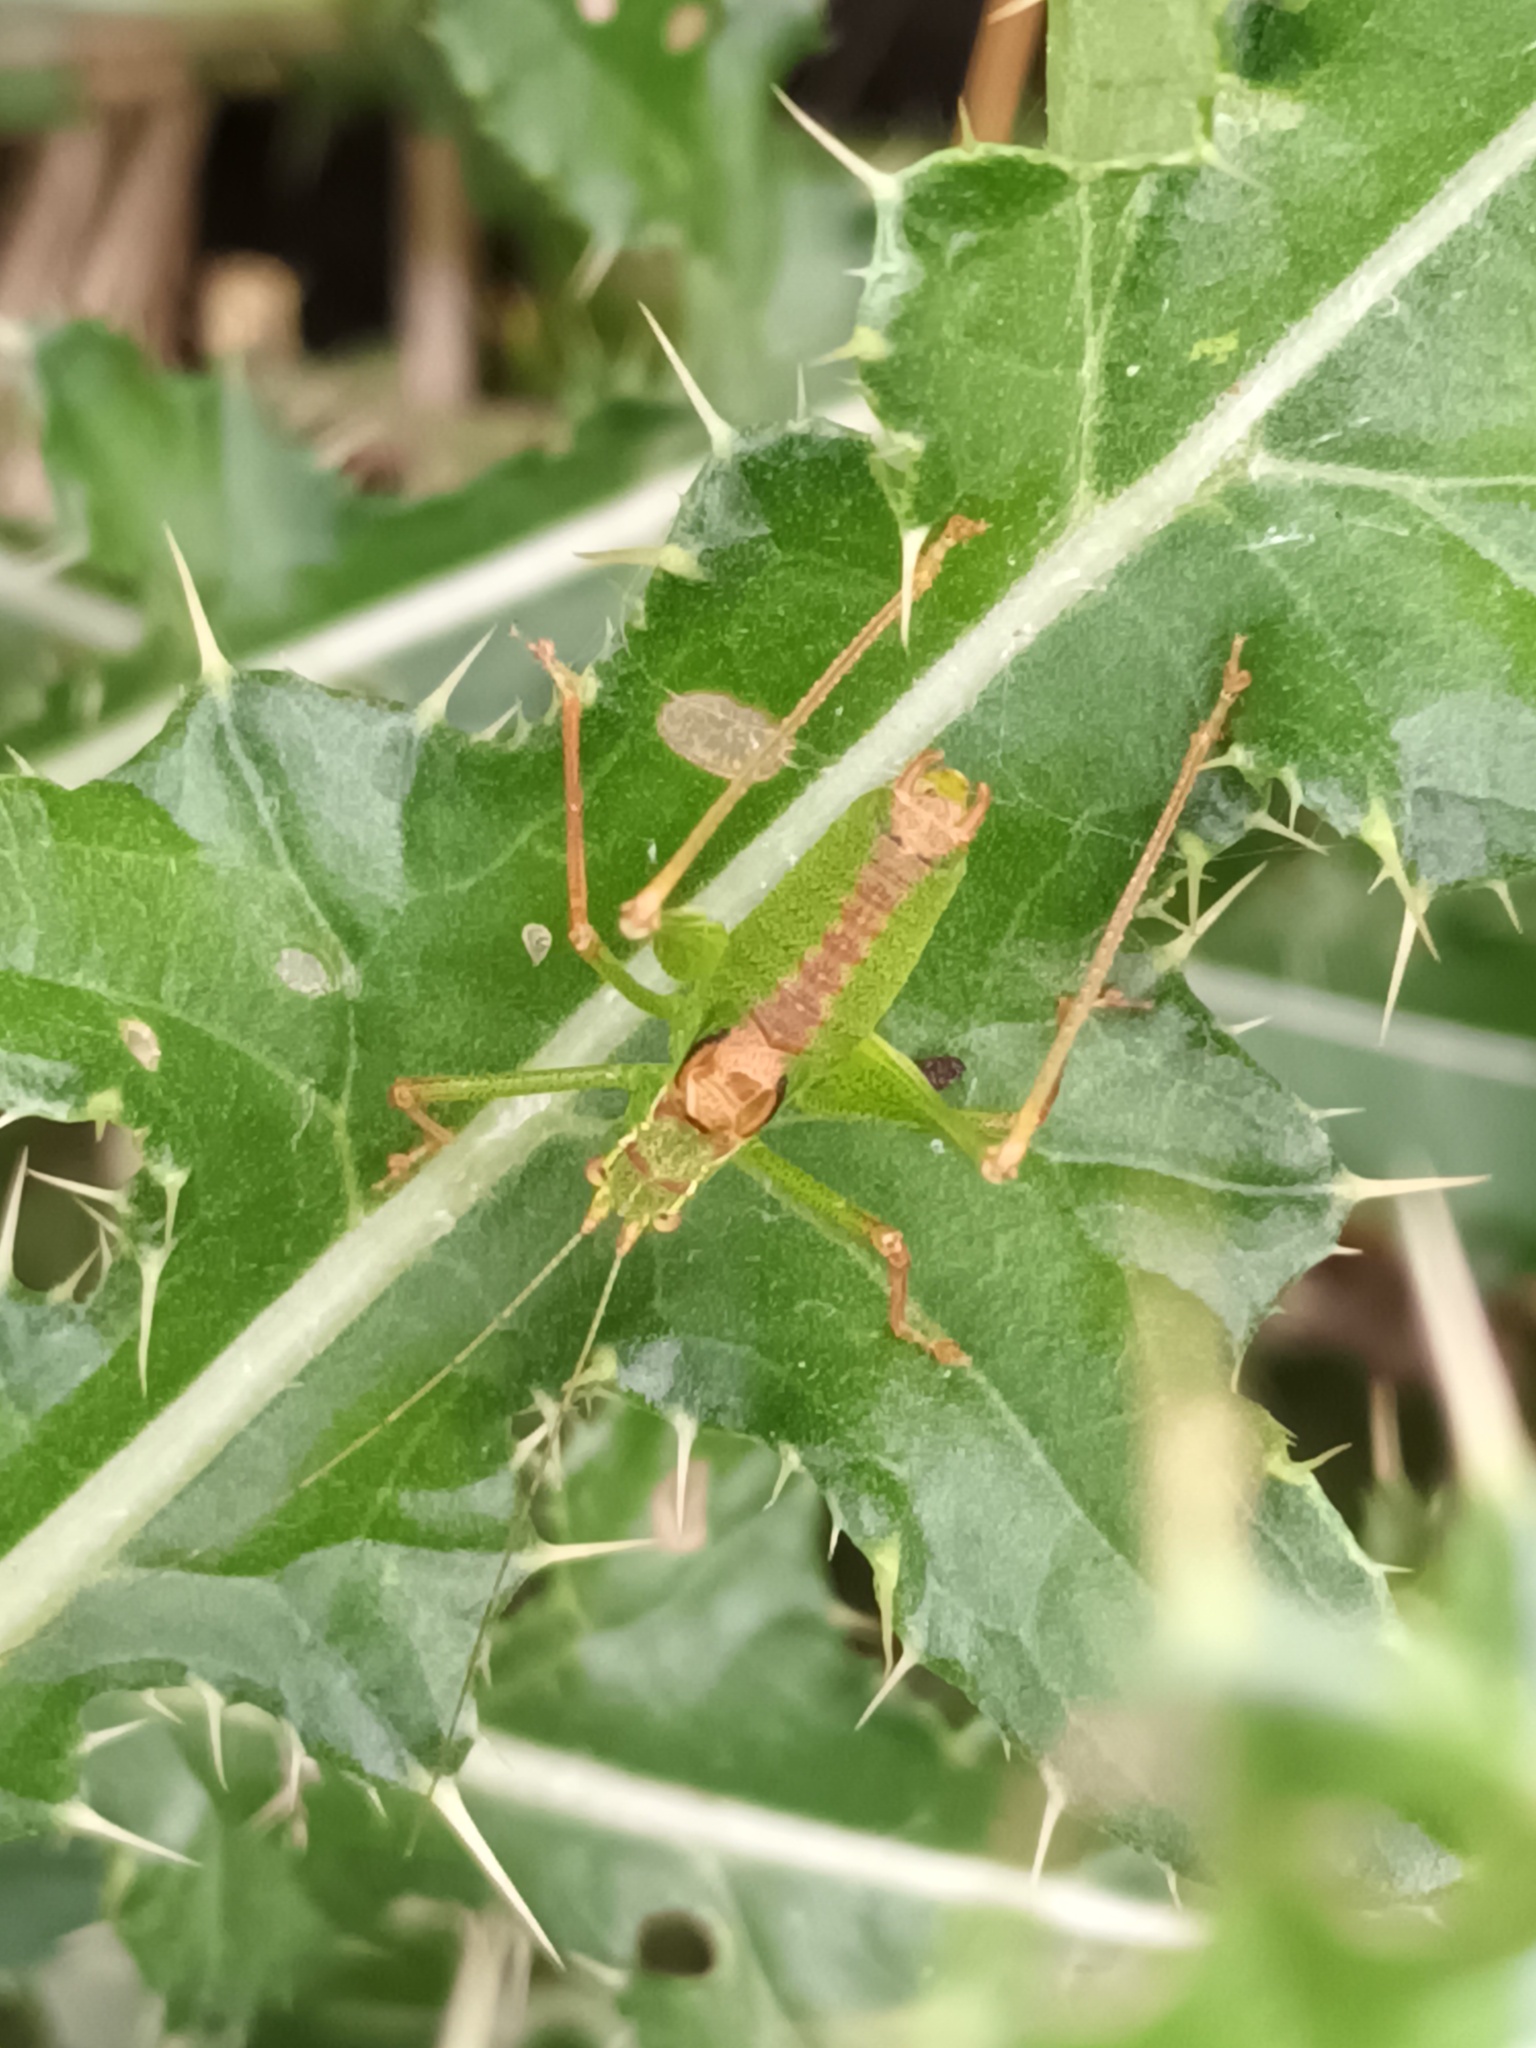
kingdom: Animalia
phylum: Arthropoda
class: Insecta
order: Orthoptera
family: Tettigoniidae
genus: Leptophyes
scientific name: Leptophyes punctatissima
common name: Speckled bush-cricket
